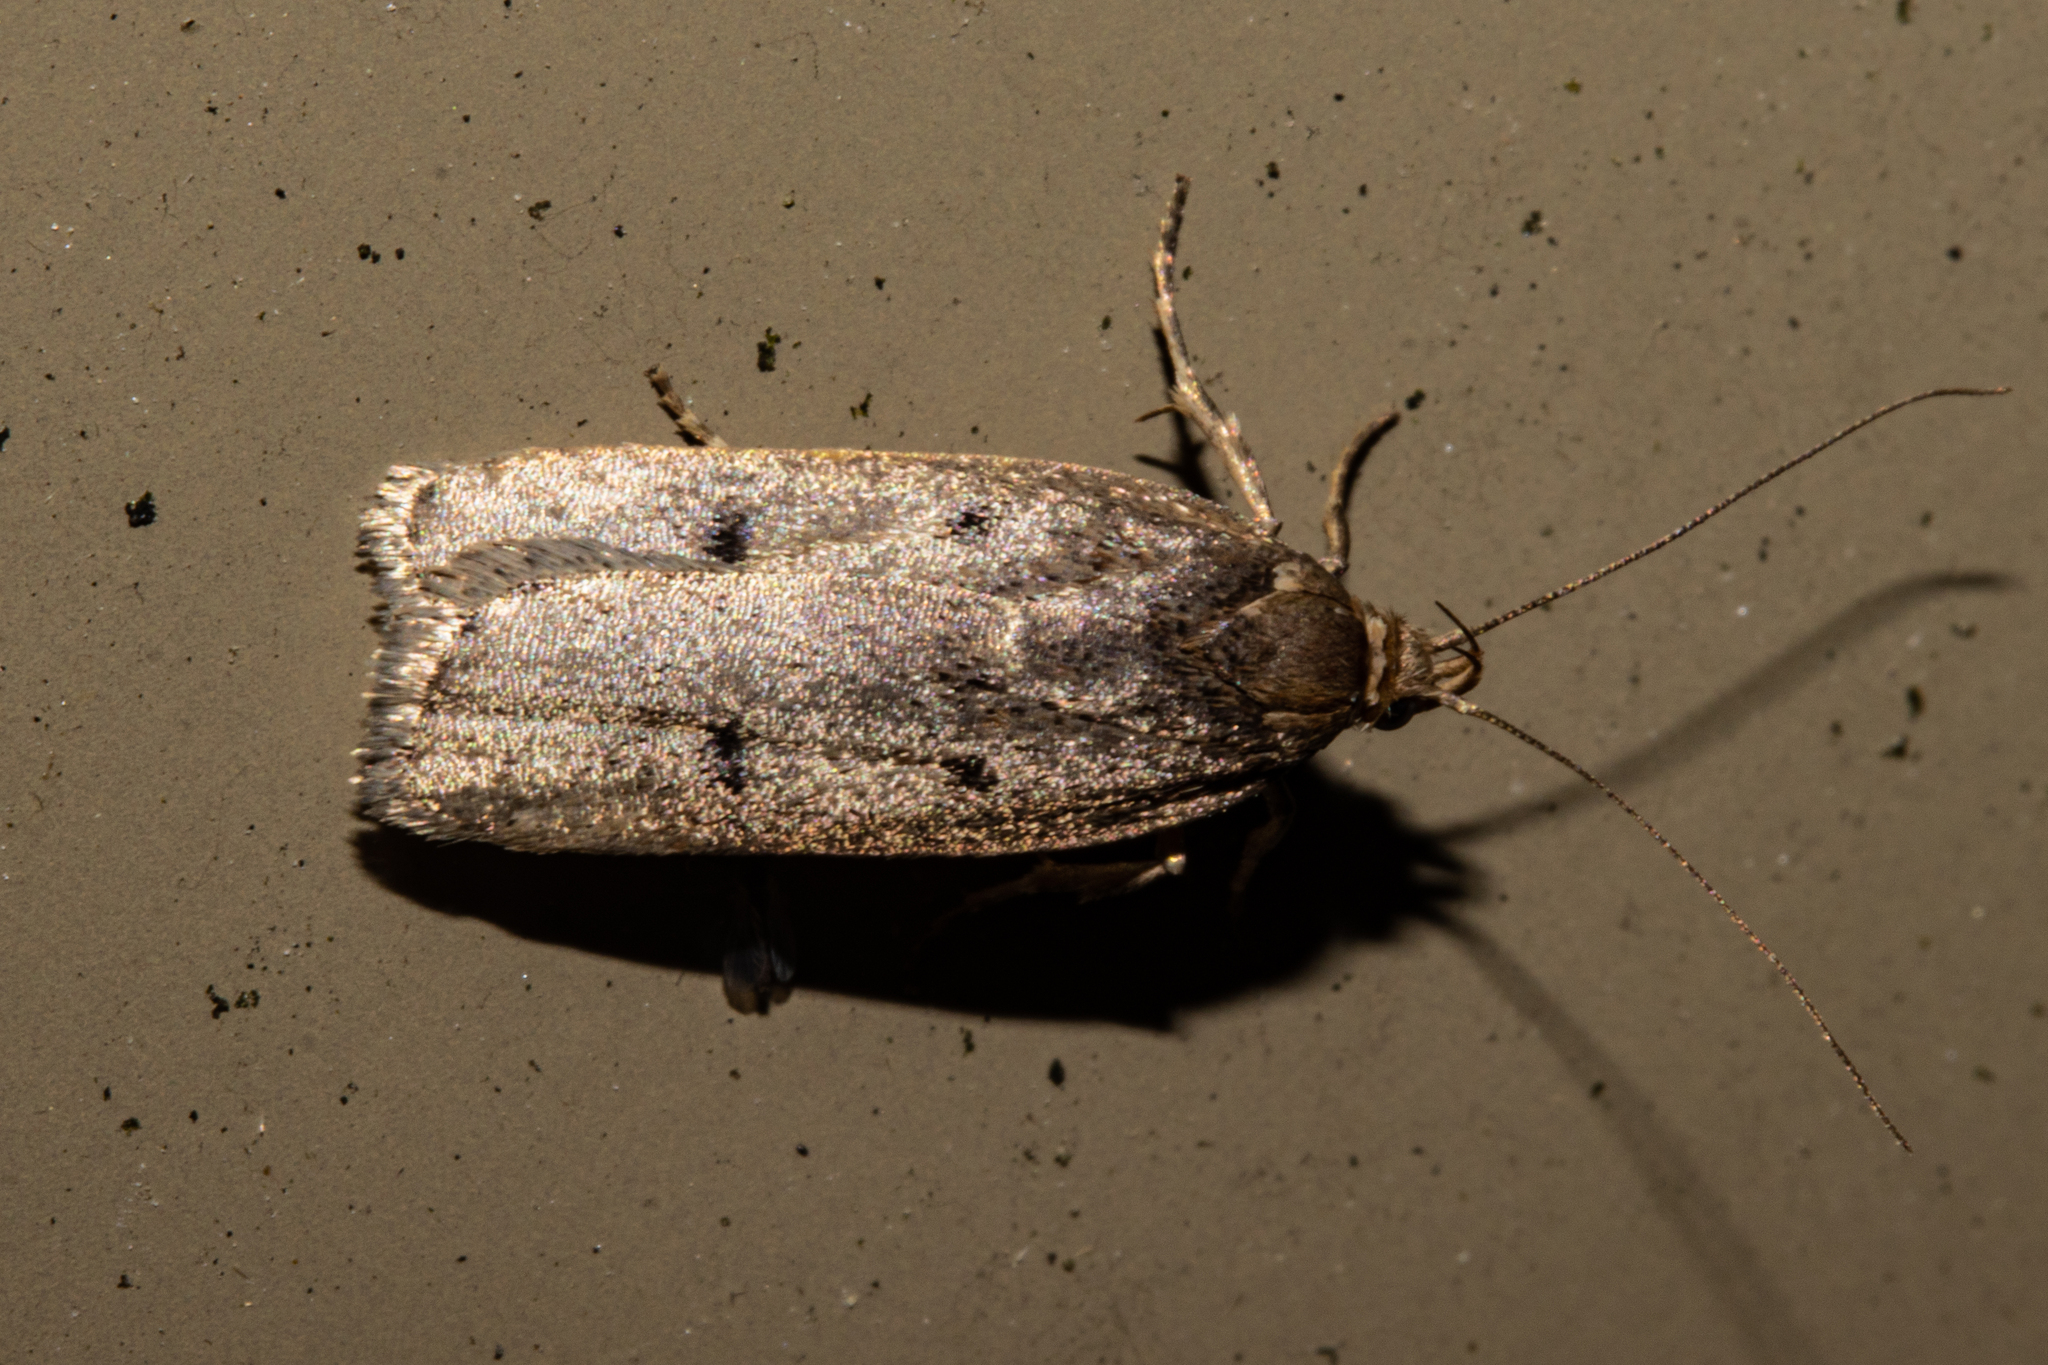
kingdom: Animalia
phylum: Arthropoda
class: Insecta
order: Lepidoptera
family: Depressariidae
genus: Phaeosaces
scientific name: Phaeosaces apocrypta
